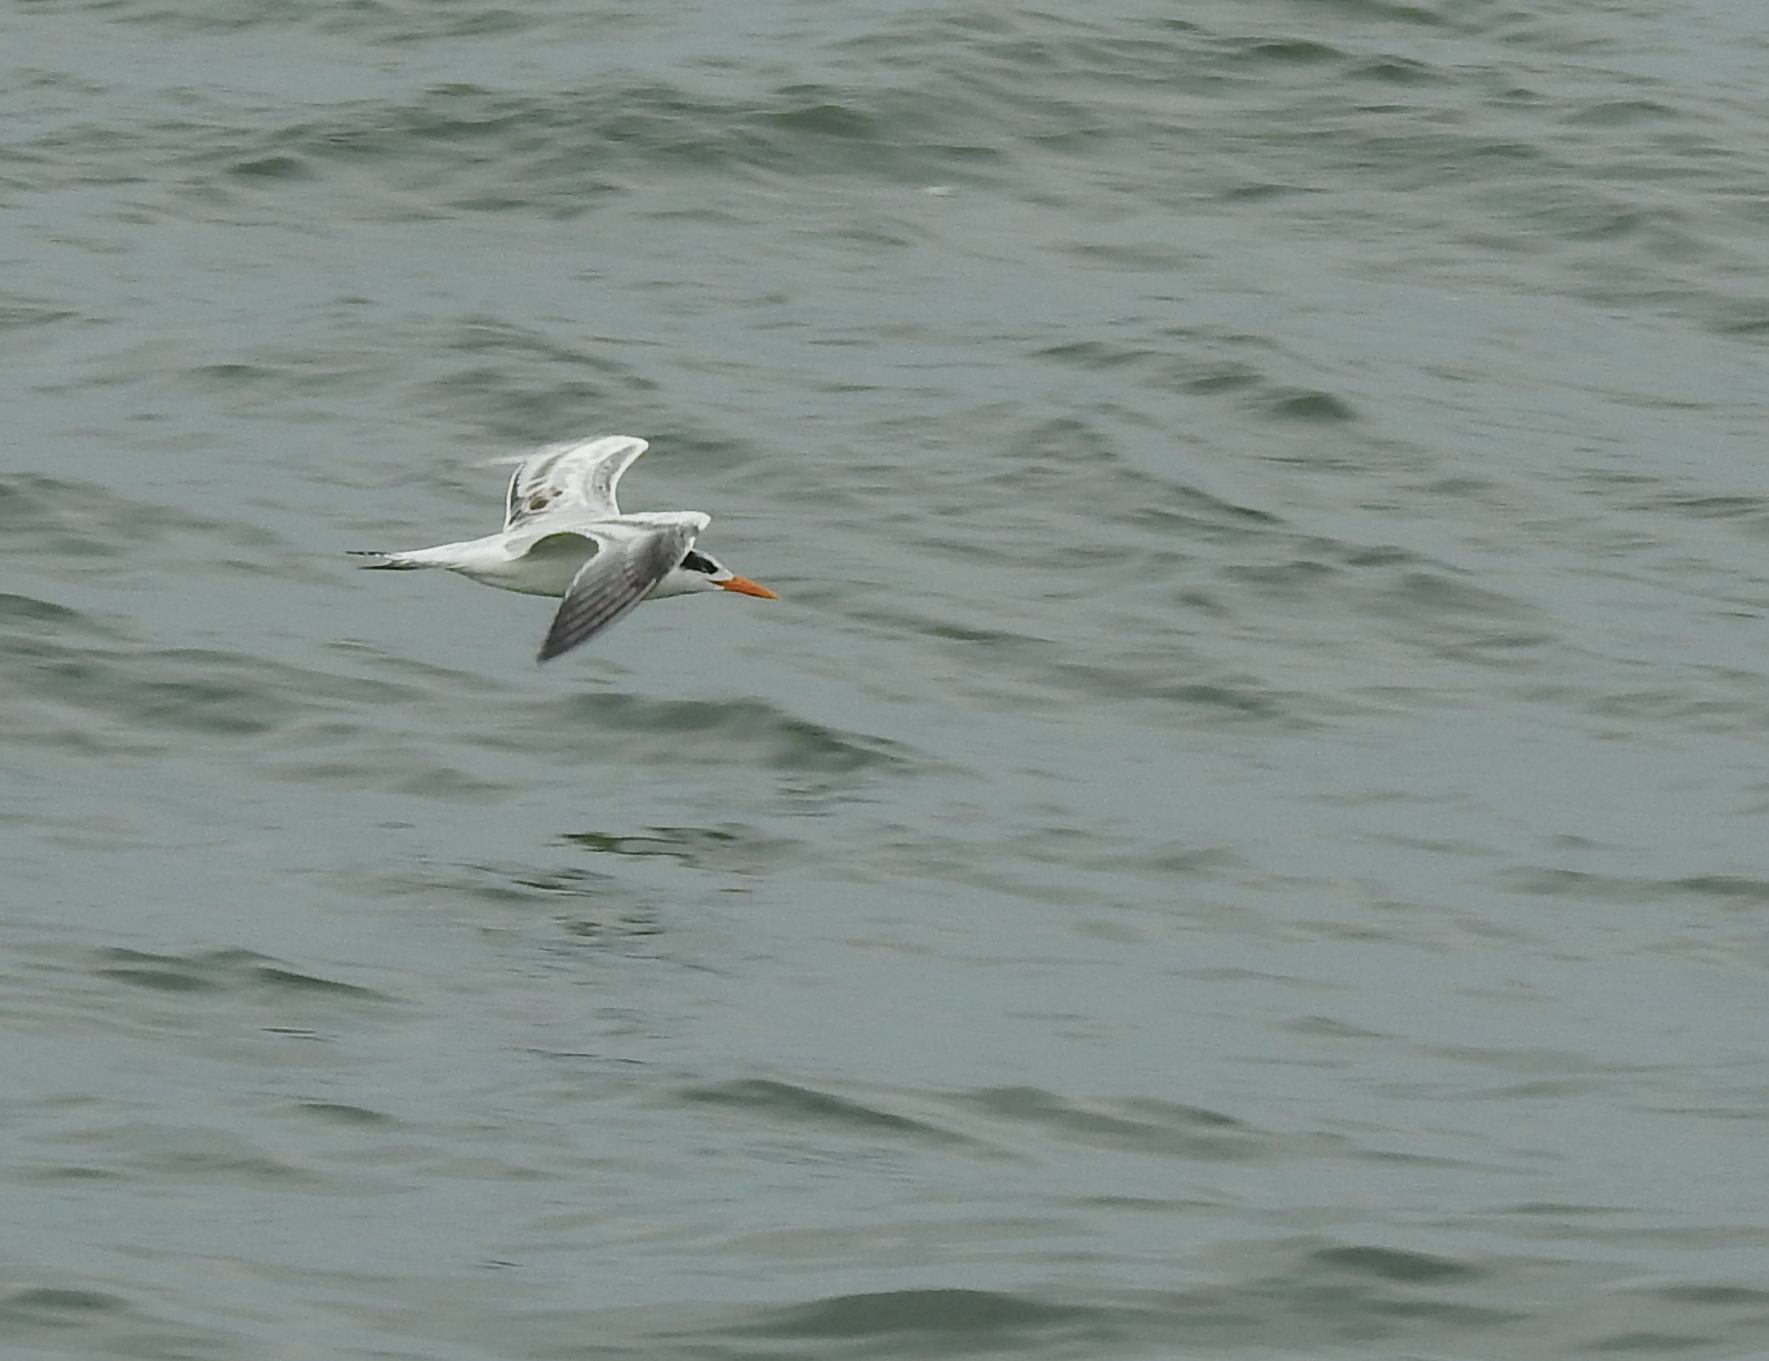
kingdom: Animalia
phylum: Chordata
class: Aves
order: Charadriiformes
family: Laridae
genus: Thalasseus
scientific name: Thalasseus maximus
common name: Royal tern
